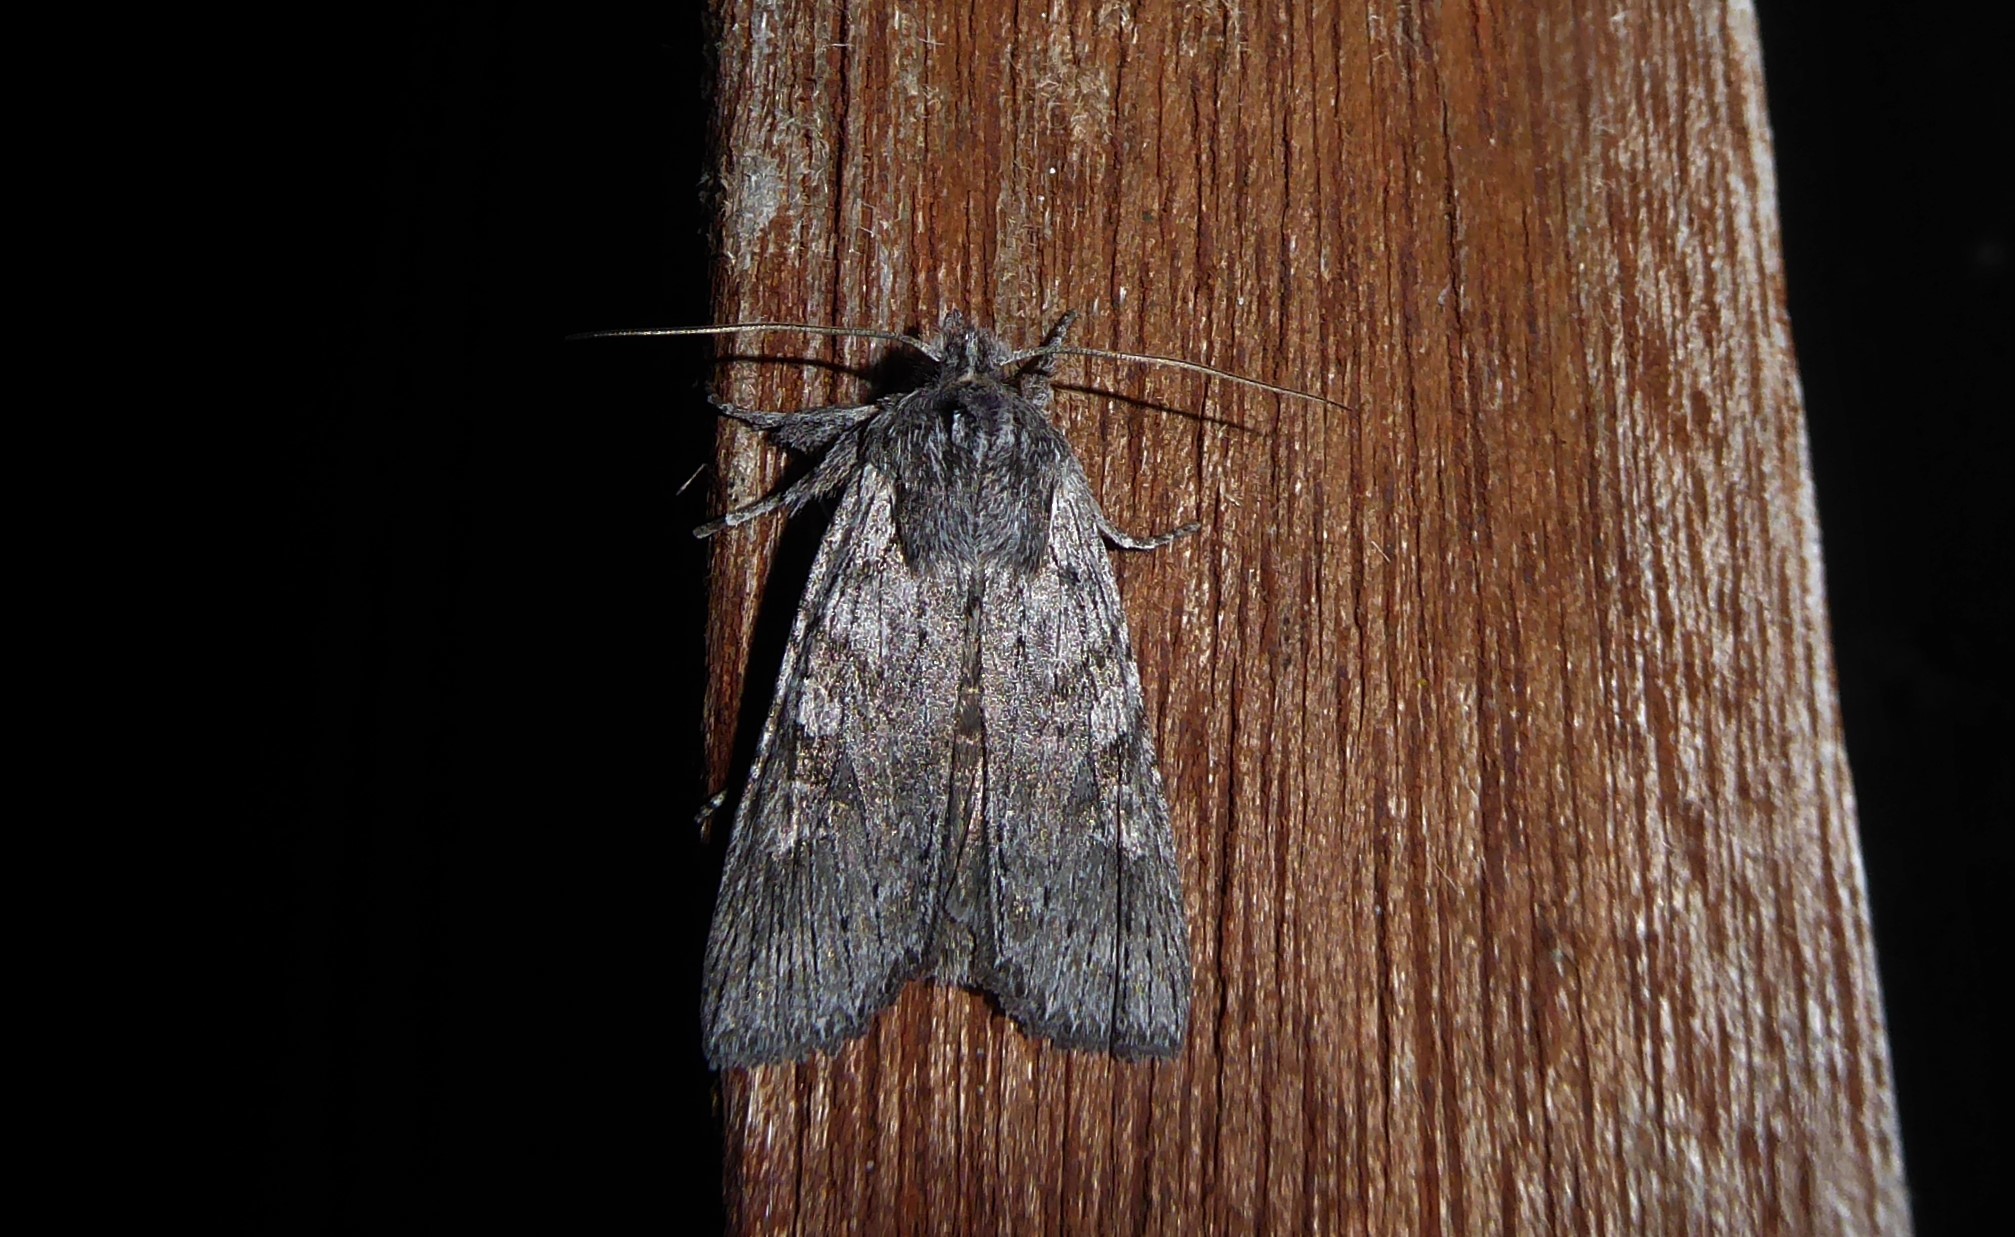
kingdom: Animalia
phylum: Arthropoda
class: Insecta
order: Lepidoptera
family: Noctuidae
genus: Physetica
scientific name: Physetica phricias
